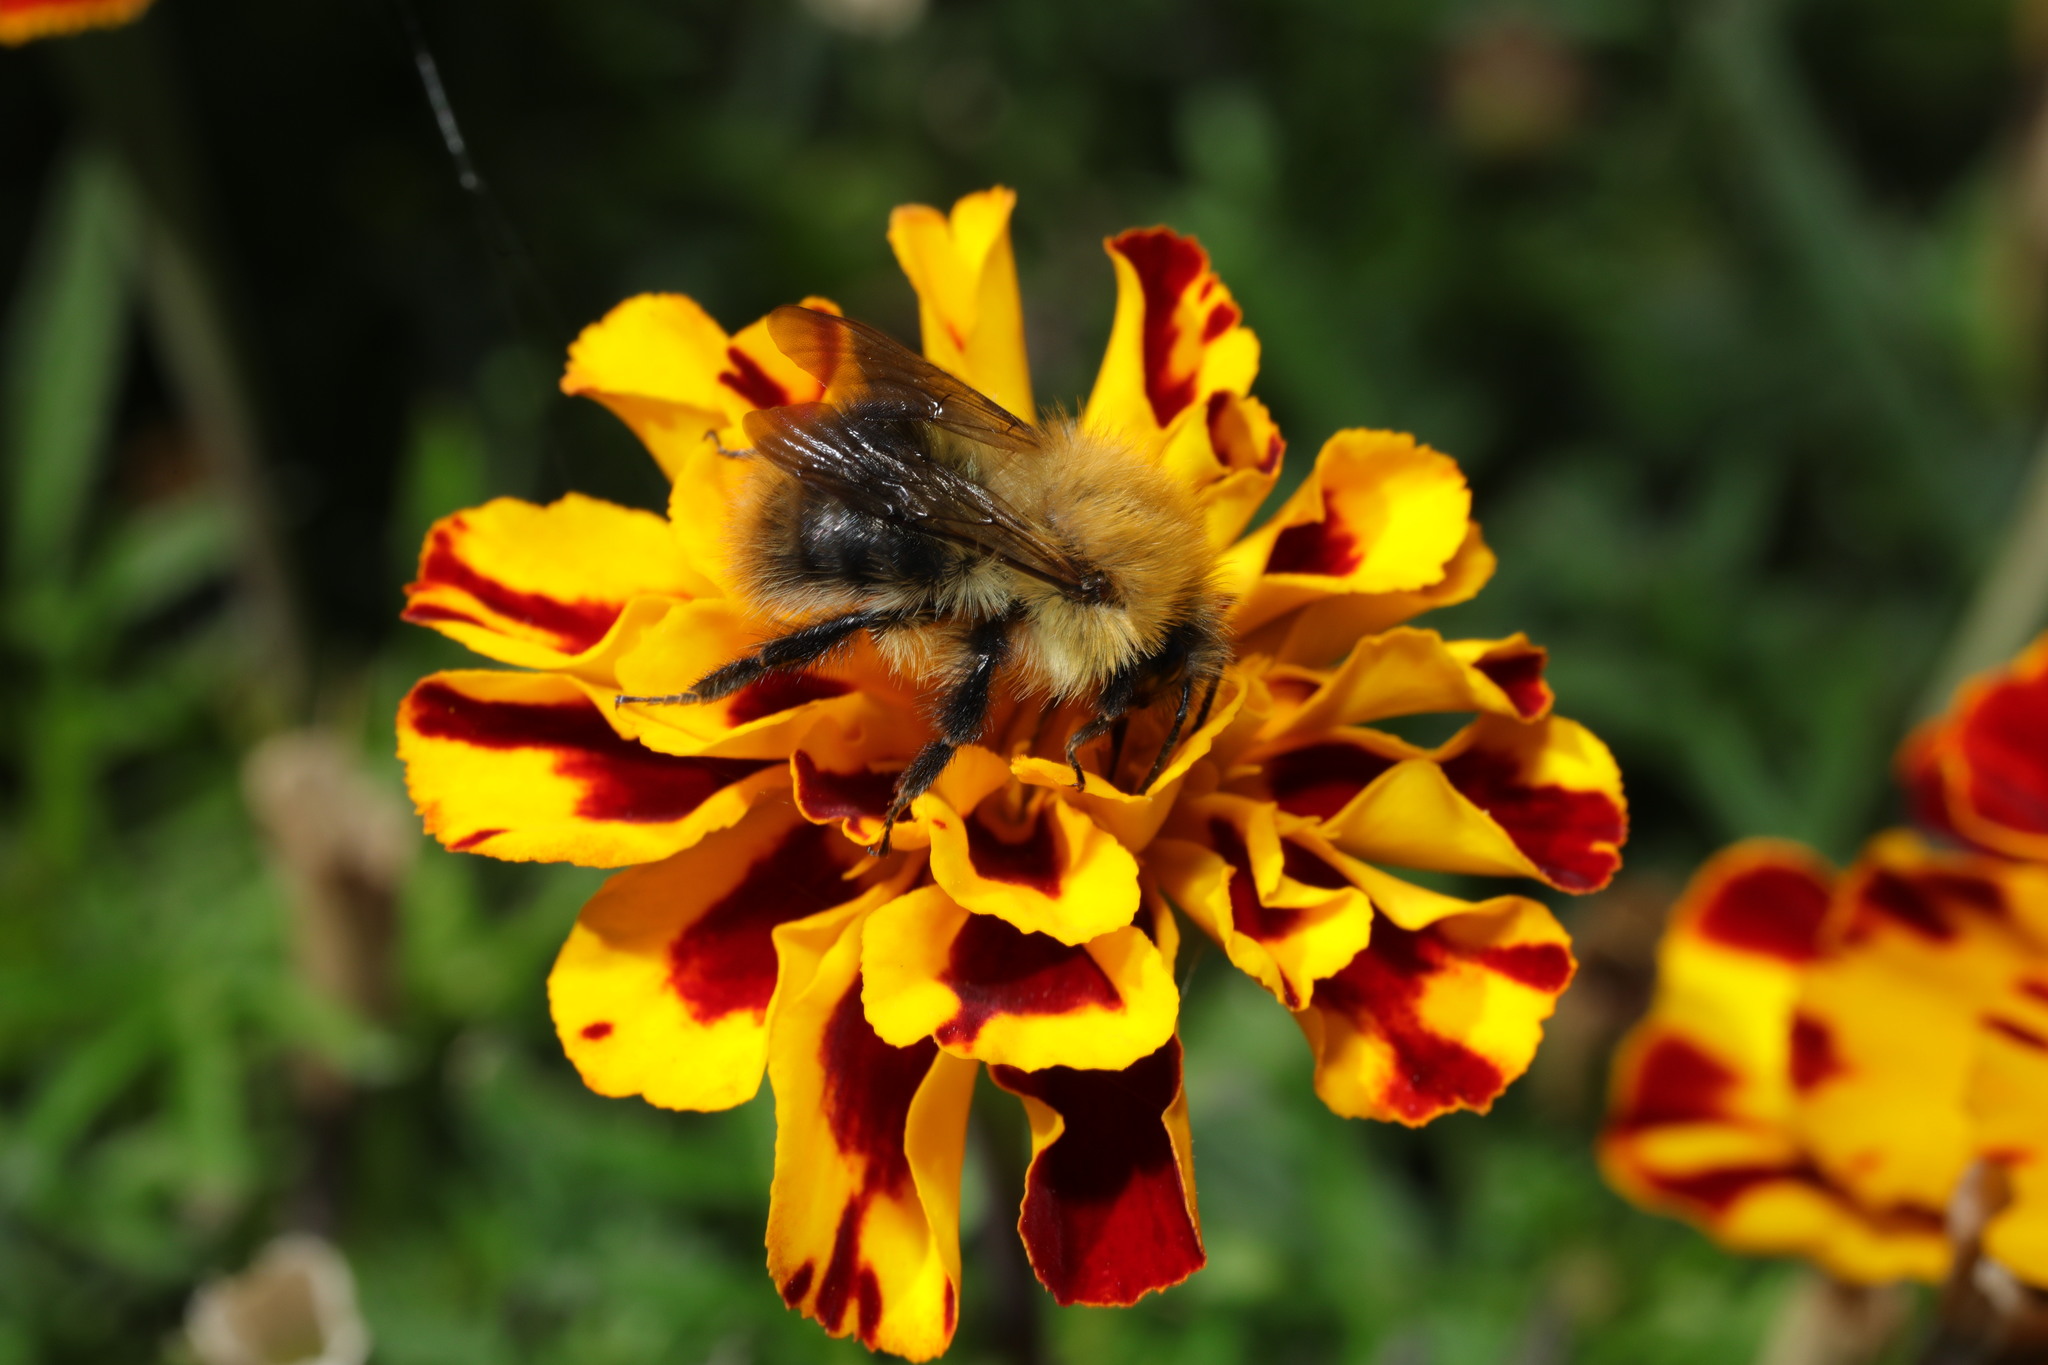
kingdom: Animalia
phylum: Arthropoda
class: Insecta
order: Hymenoptera
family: Apidae
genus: Bombus
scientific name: Bombus pascuorum
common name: Common carder bee
